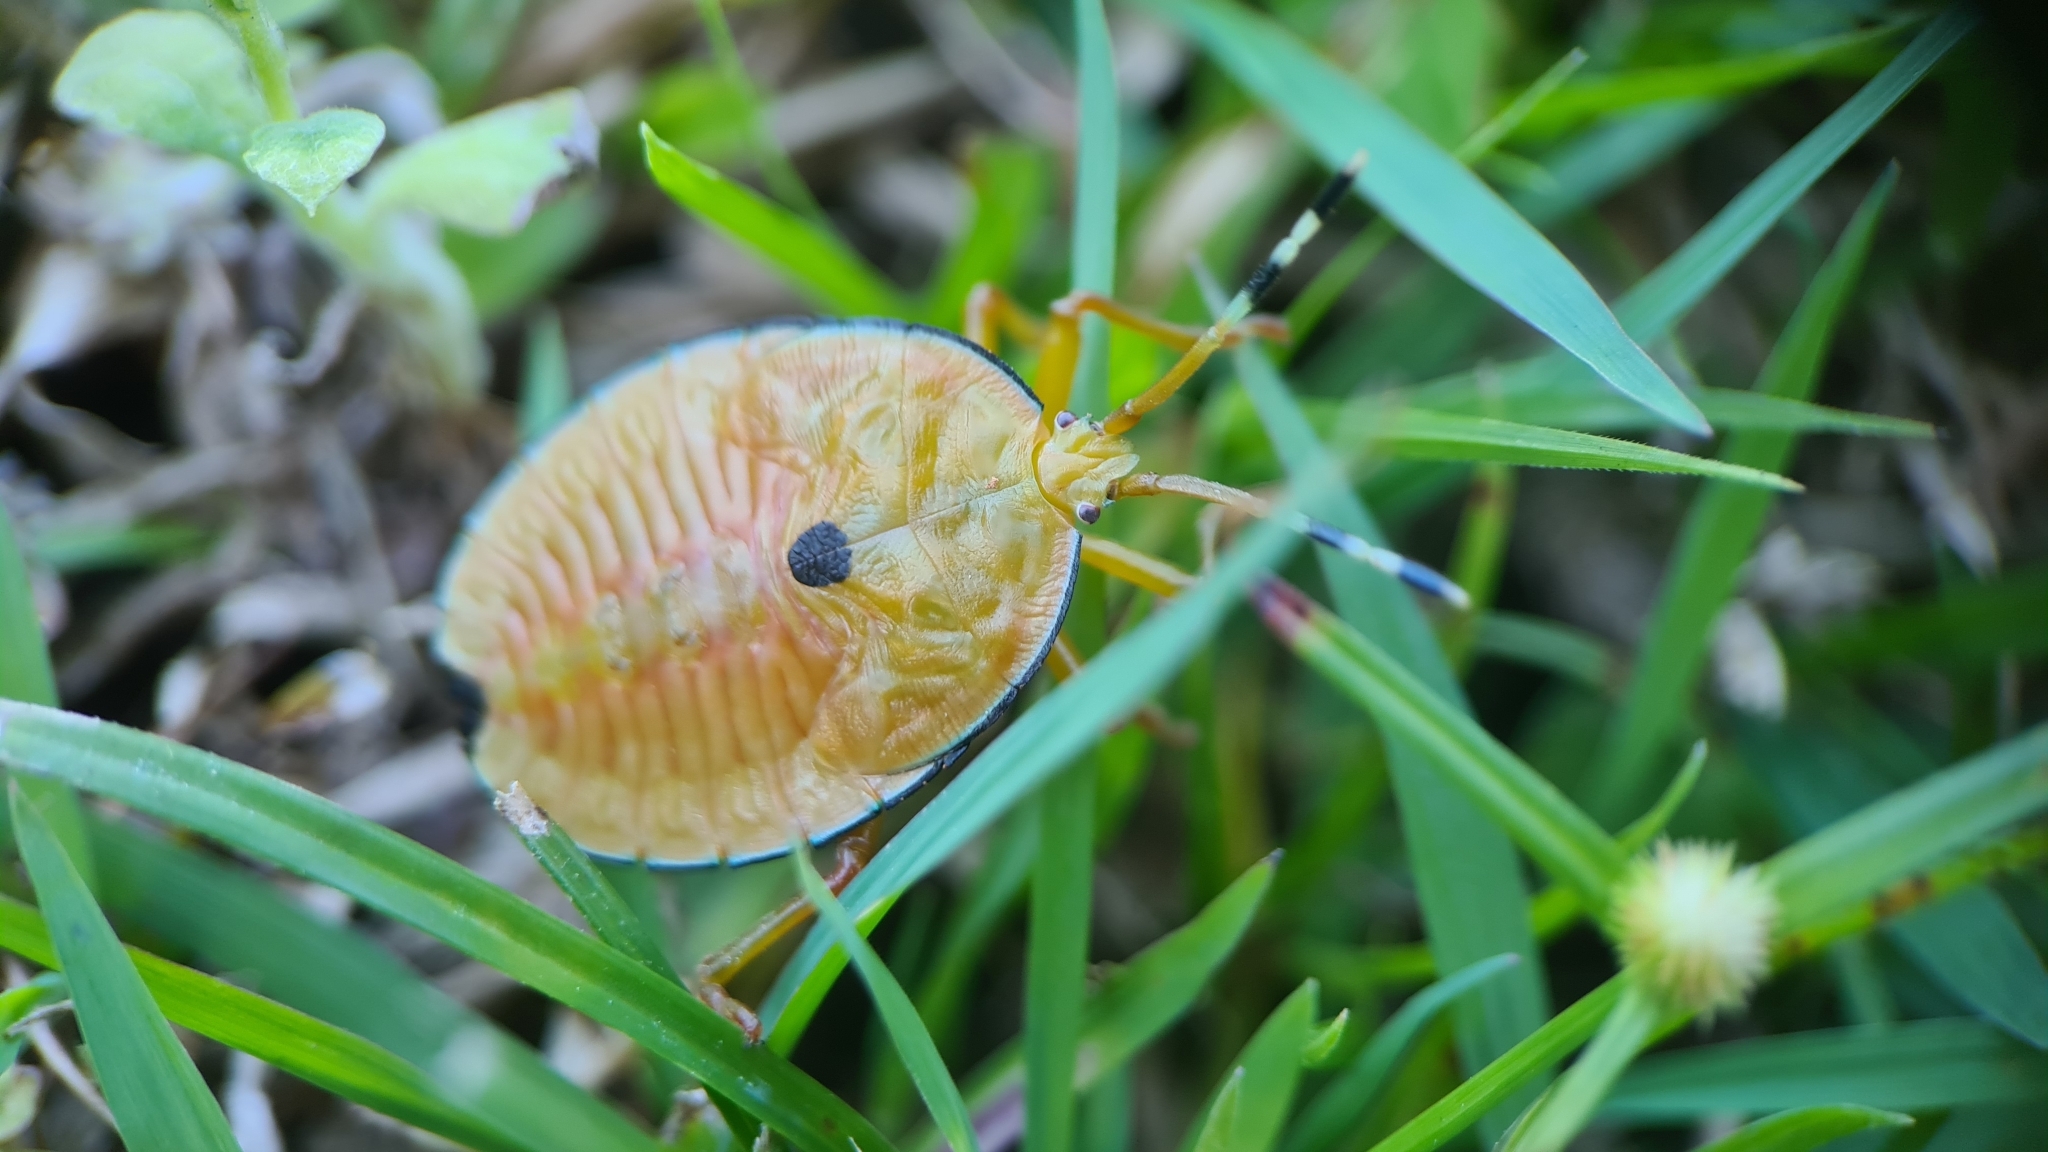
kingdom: Animalia
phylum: Arthropoda
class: Insecta
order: Hemiptera
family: Tessaratomidae
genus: Musgraveia
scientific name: Musgraveia sulciventris
